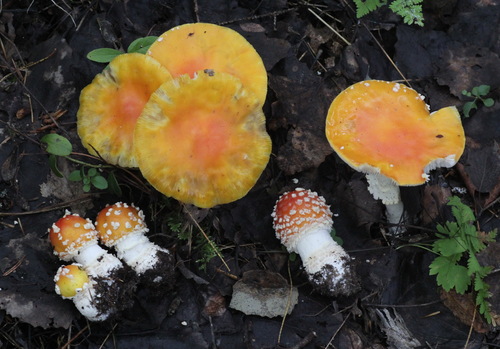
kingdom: Fungi
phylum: Basidiomycota
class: Agaricomycetes
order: Agaricales
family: Amanitaceae
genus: Amanita
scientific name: Amanita muscaria
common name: Fly agaric
